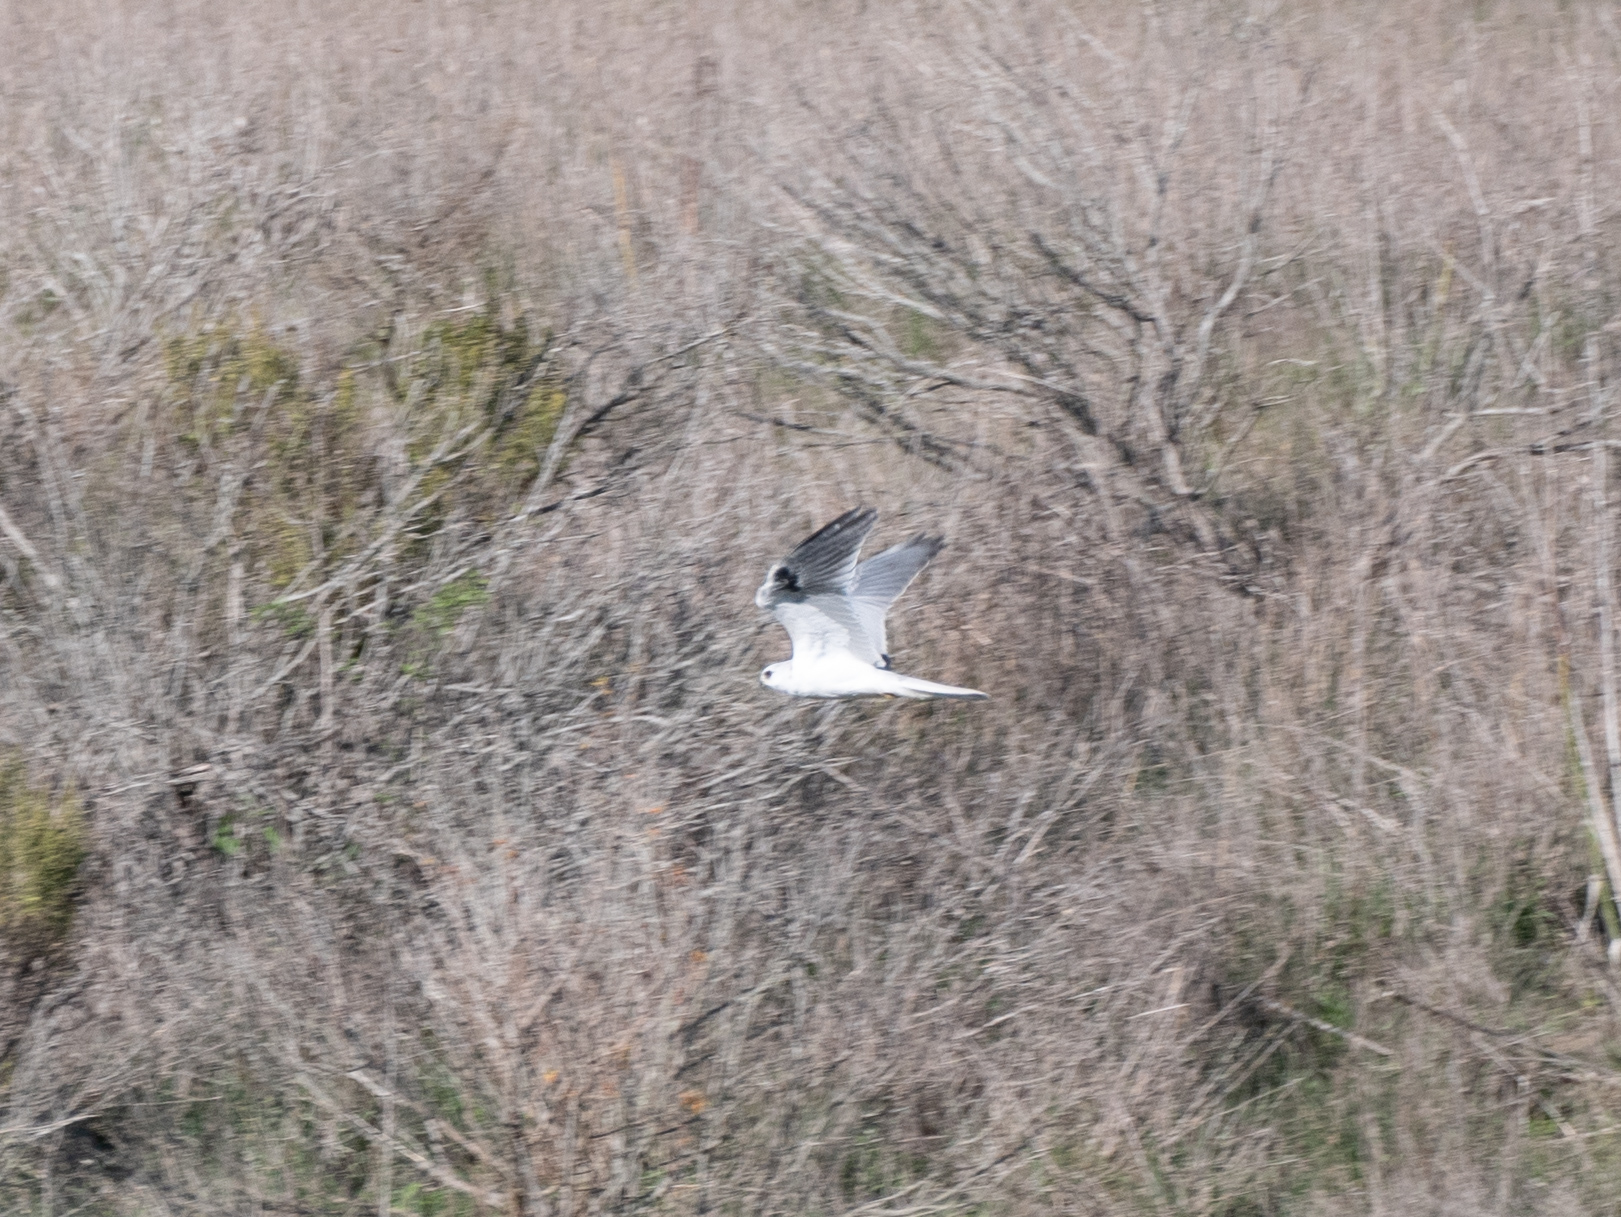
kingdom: Animalia
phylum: Chordata
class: Aves
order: Accipitriformes
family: Accipitridae
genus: Elanus
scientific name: Elanus leucurus
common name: White-tailed kite
